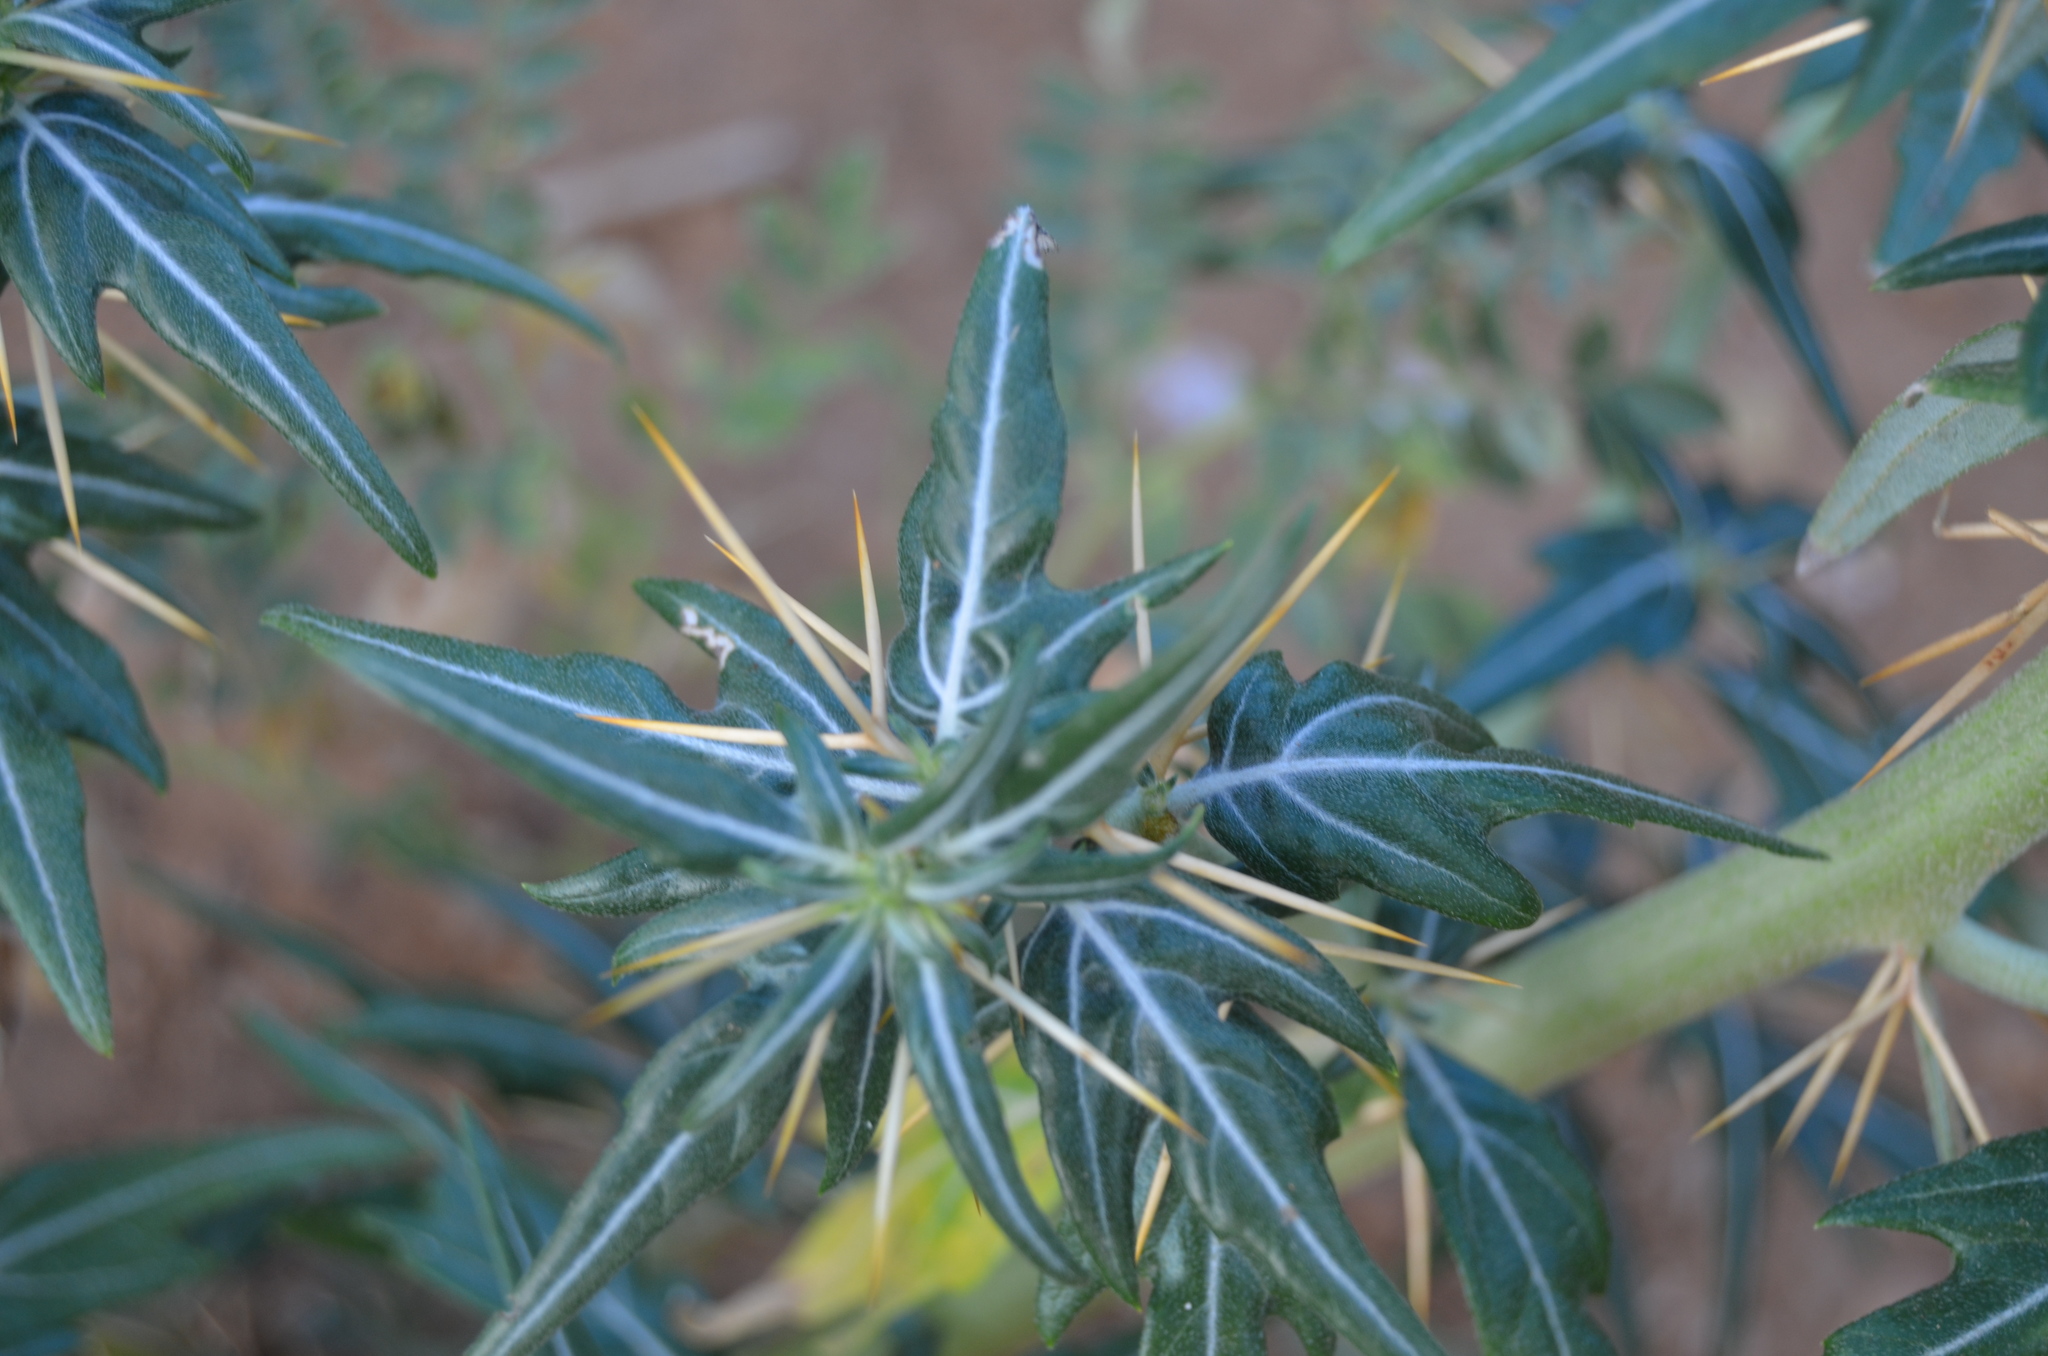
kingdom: Plantae
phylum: Tracheophyta
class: Magnoliopsida
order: Asterales
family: Asteraceae
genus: Xanthium
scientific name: Xanthium spinosum
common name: Spiny cocklebur
